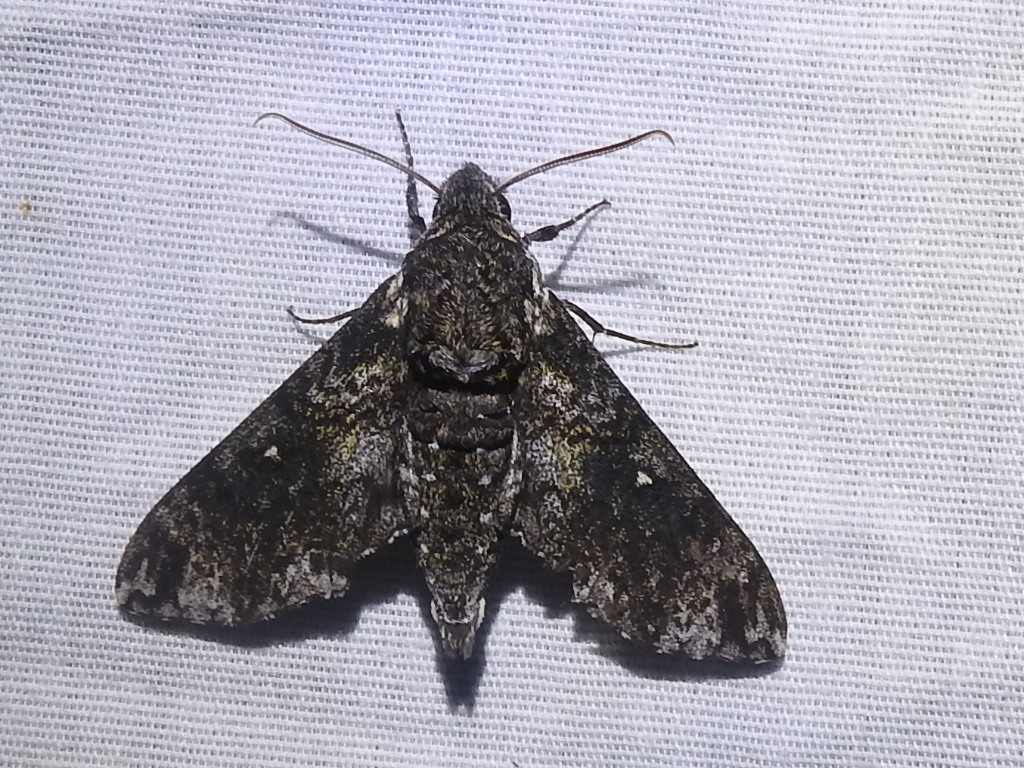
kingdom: Animalia
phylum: Arthropoda
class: Insecta
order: Lepidoptera
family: Sphingidae
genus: Dolba
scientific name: Dolba hyloeus
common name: Pawpaw sphinx
